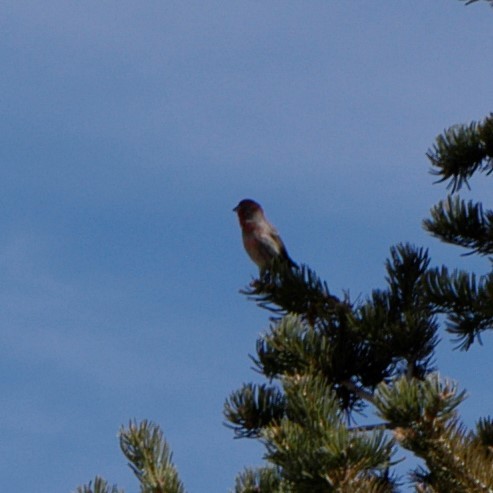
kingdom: Animalia
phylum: Chordata
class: Aves
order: Passeriformes
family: Fringillidae
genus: Haemorhous
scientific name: Haemorhous mexicanus
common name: House finch
